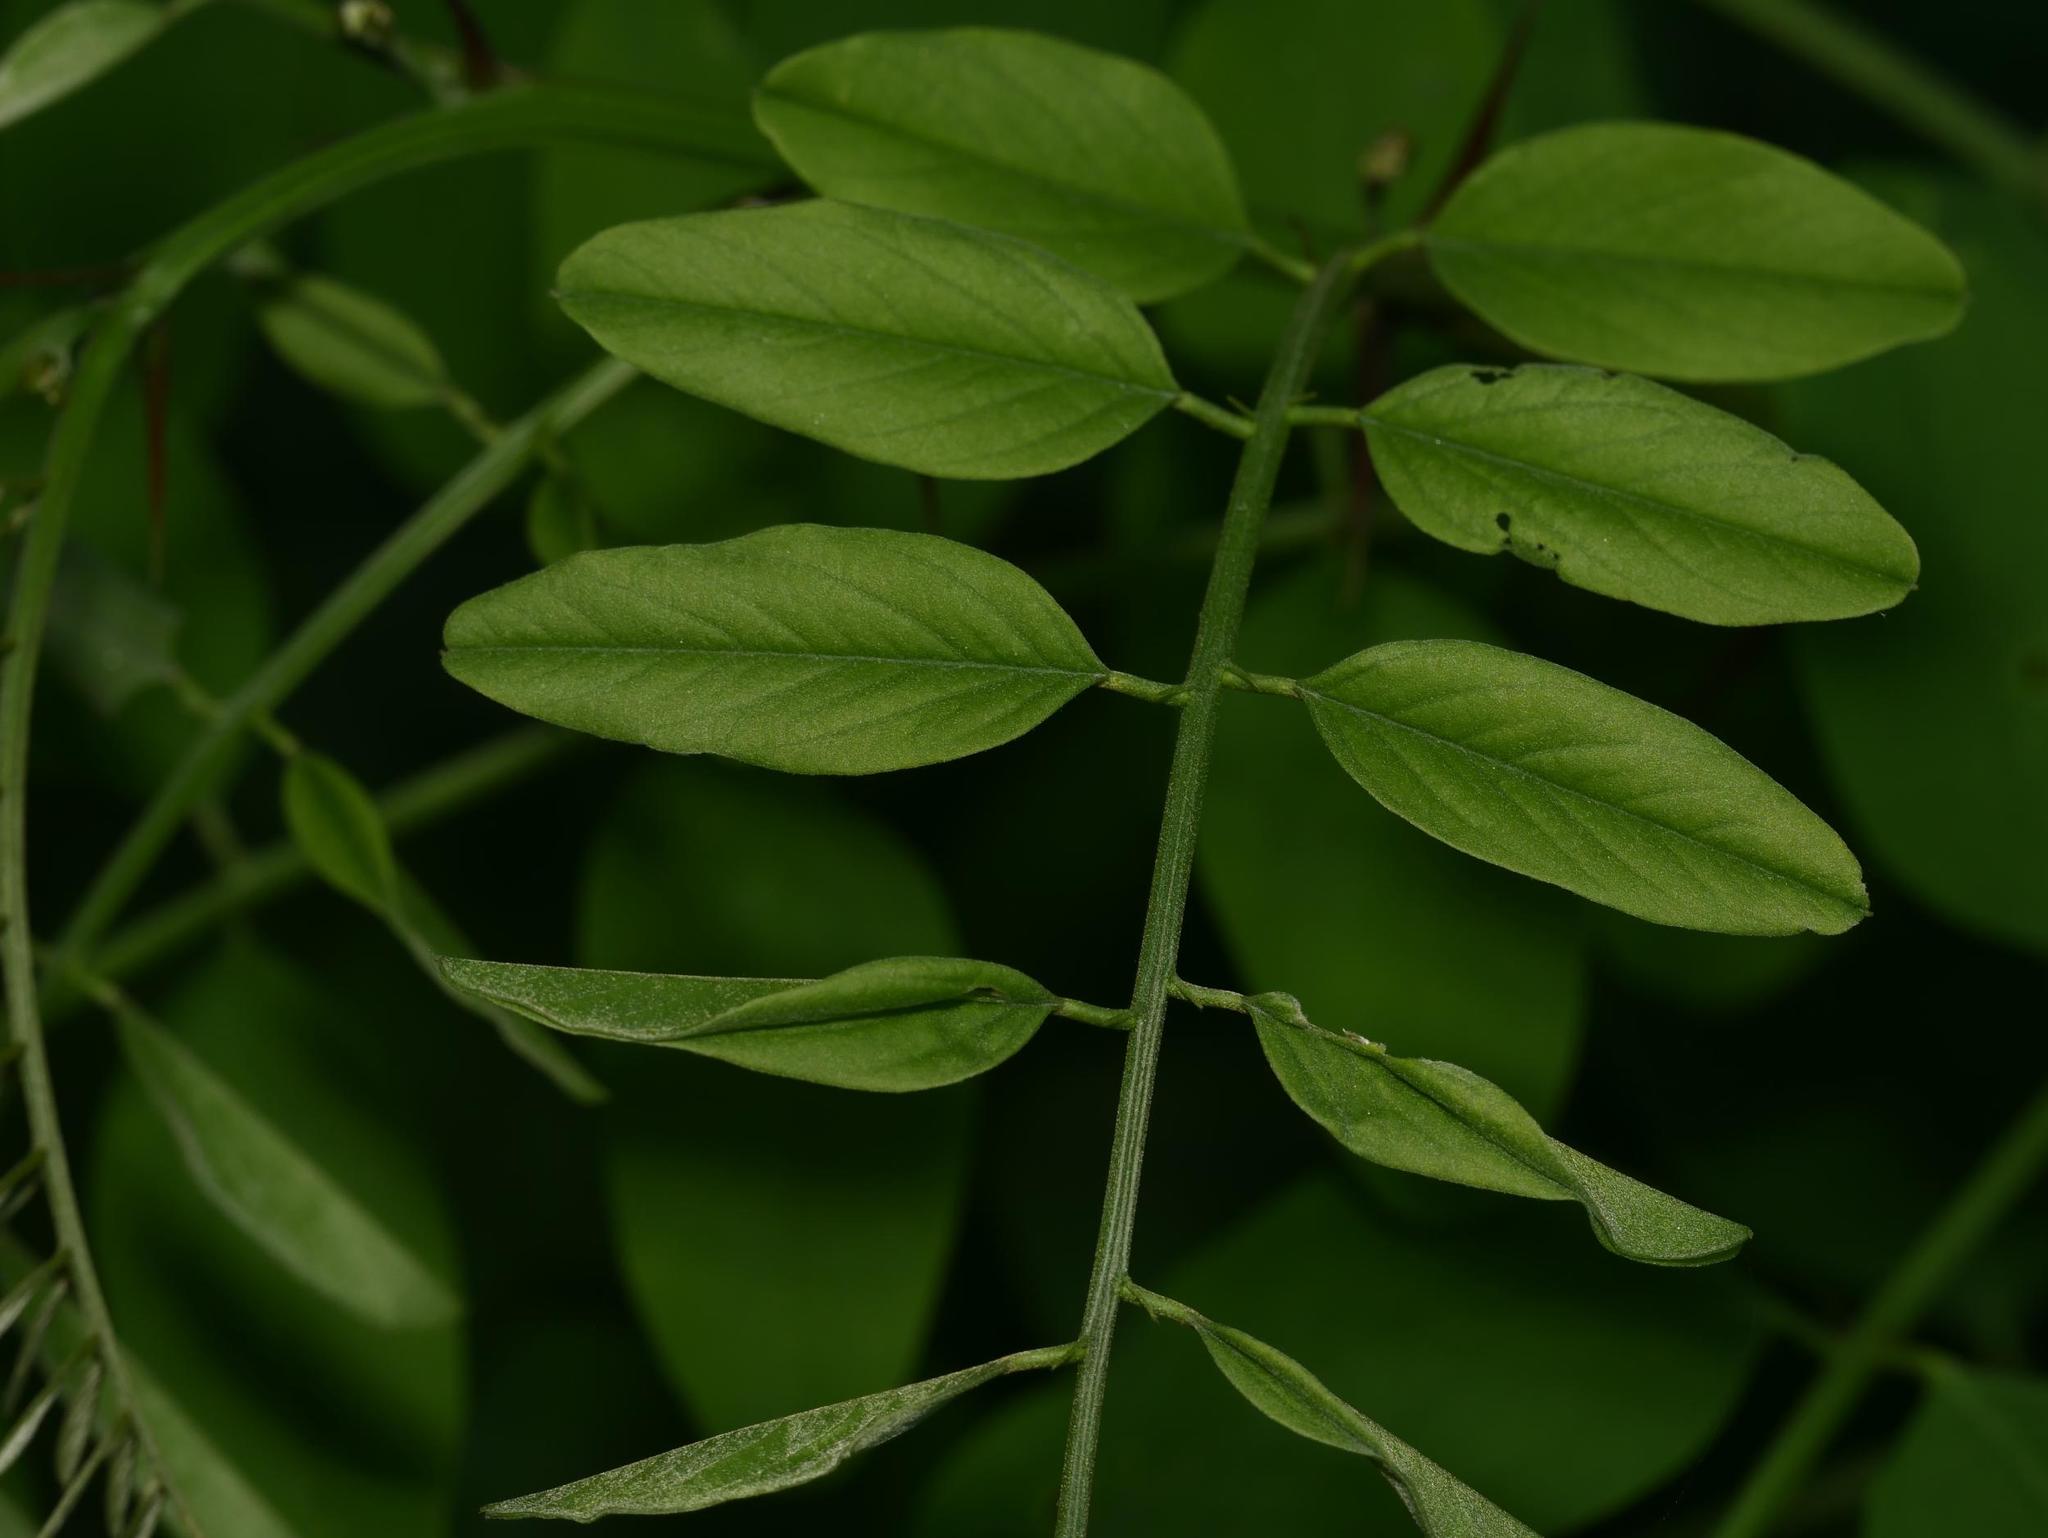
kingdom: Plantae
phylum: Tracheophyta
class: Magnoliopsida
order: Fabales
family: Fabaceae
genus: Robinia
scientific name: Robinia pseudoacacia
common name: Black locust
